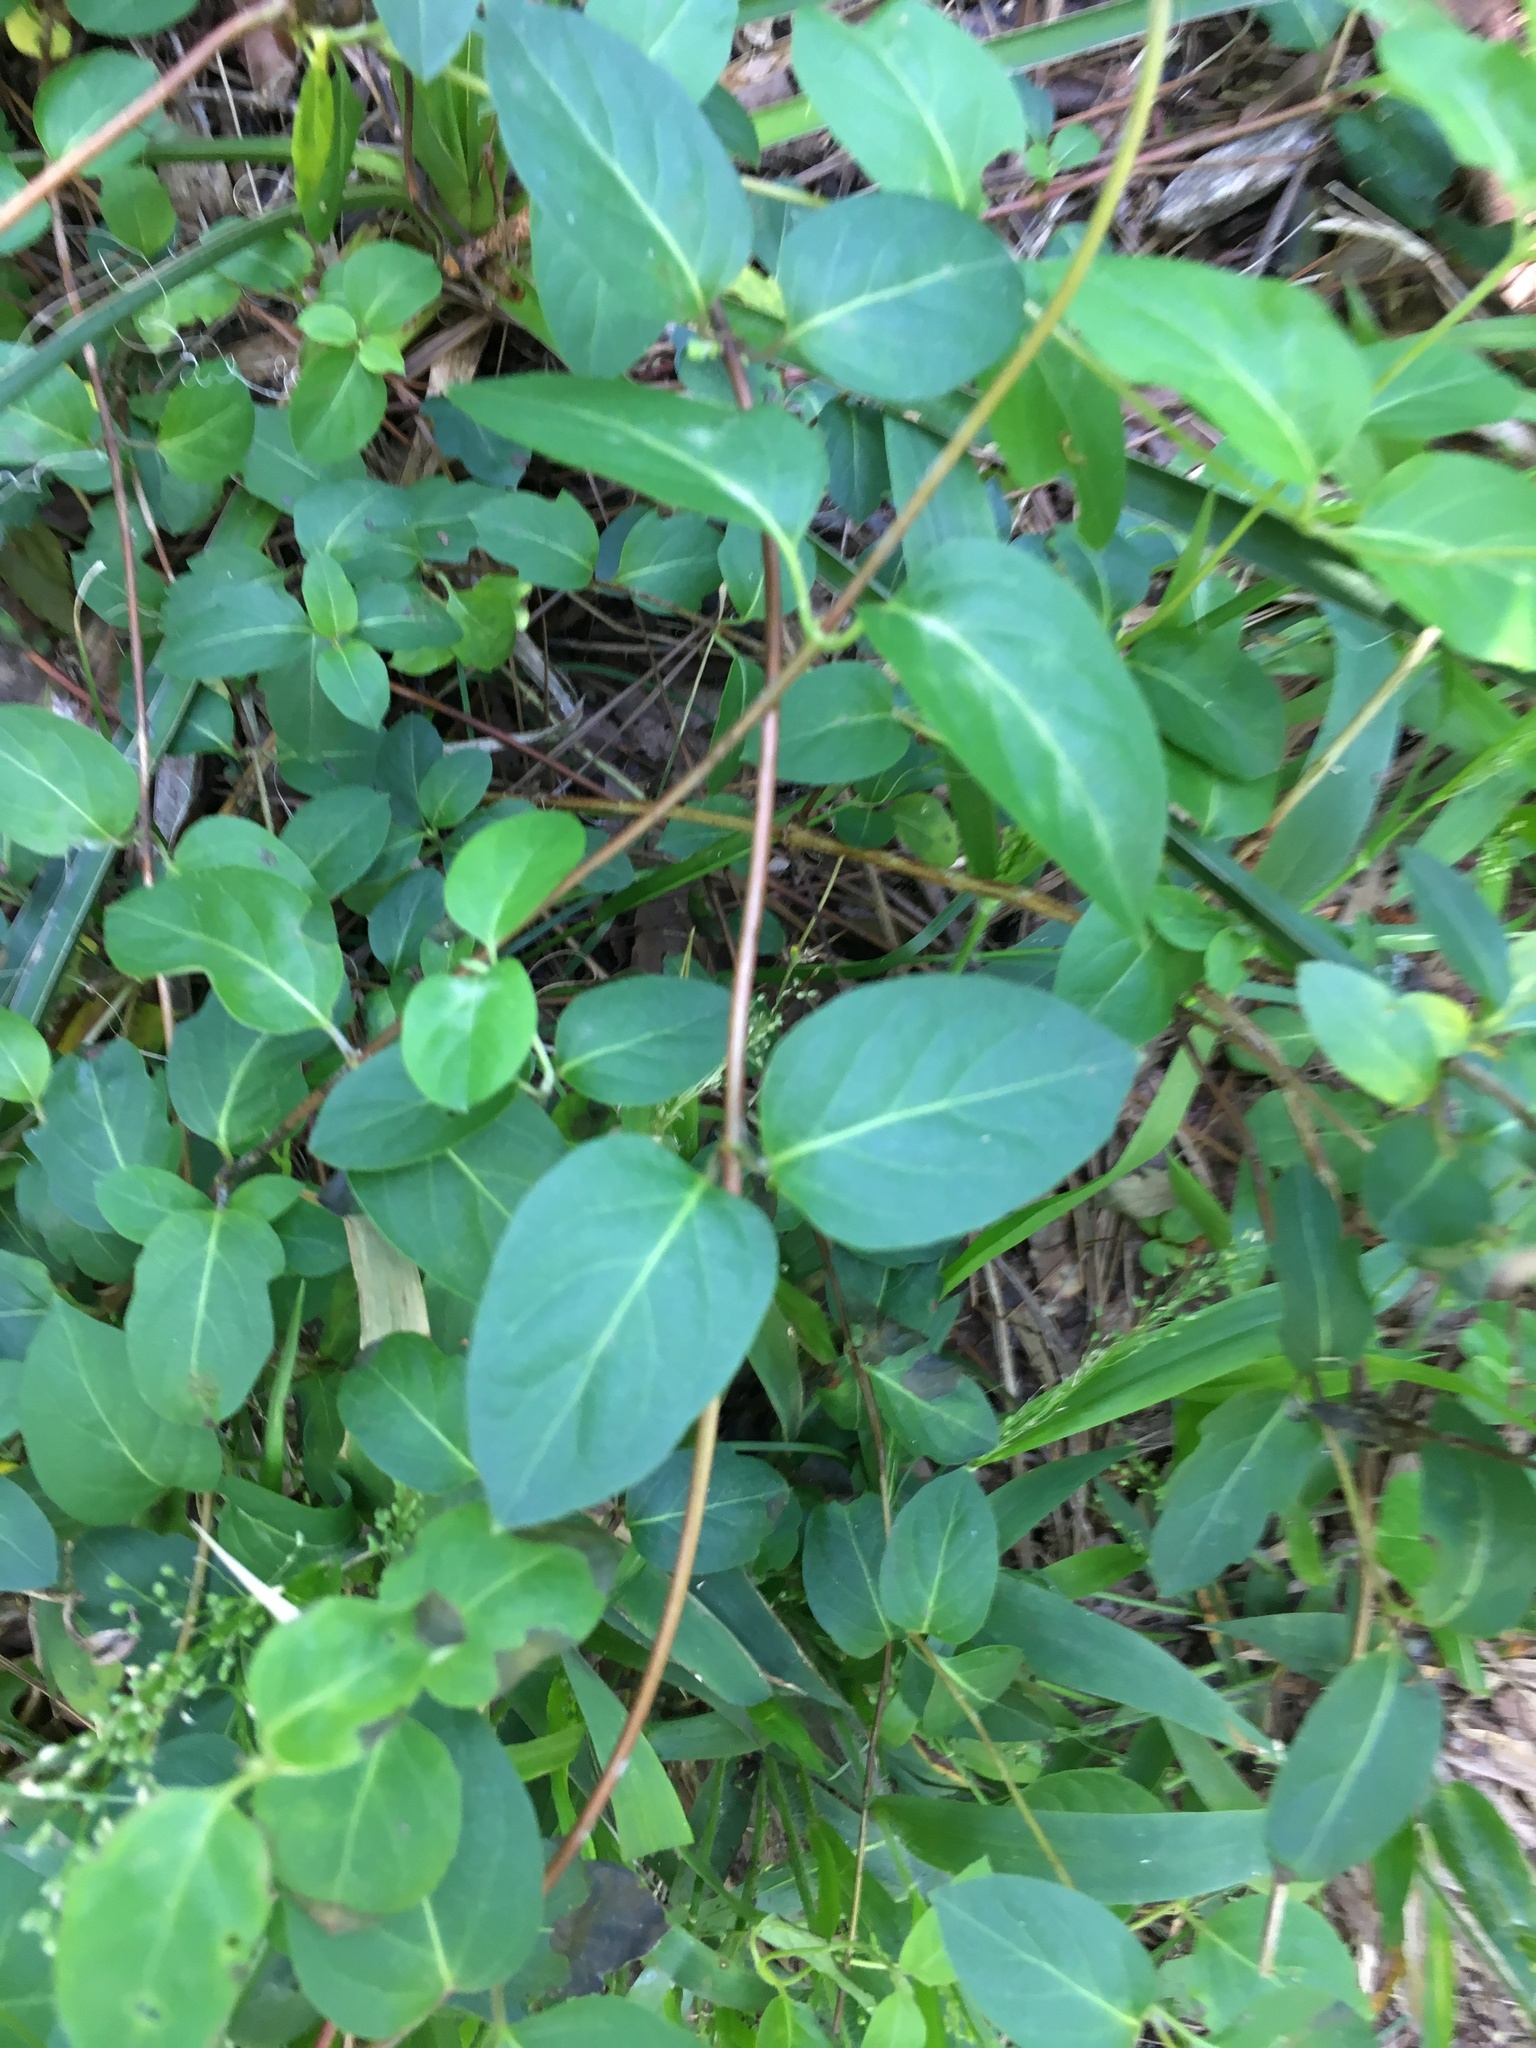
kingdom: Plantae
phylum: Tracheophyta
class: Magnoliopsida
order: Dipsacales
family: Caprifoliaceae
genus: Lonicera
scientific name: Lonicera japonica
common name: Japanese honeysuckle
